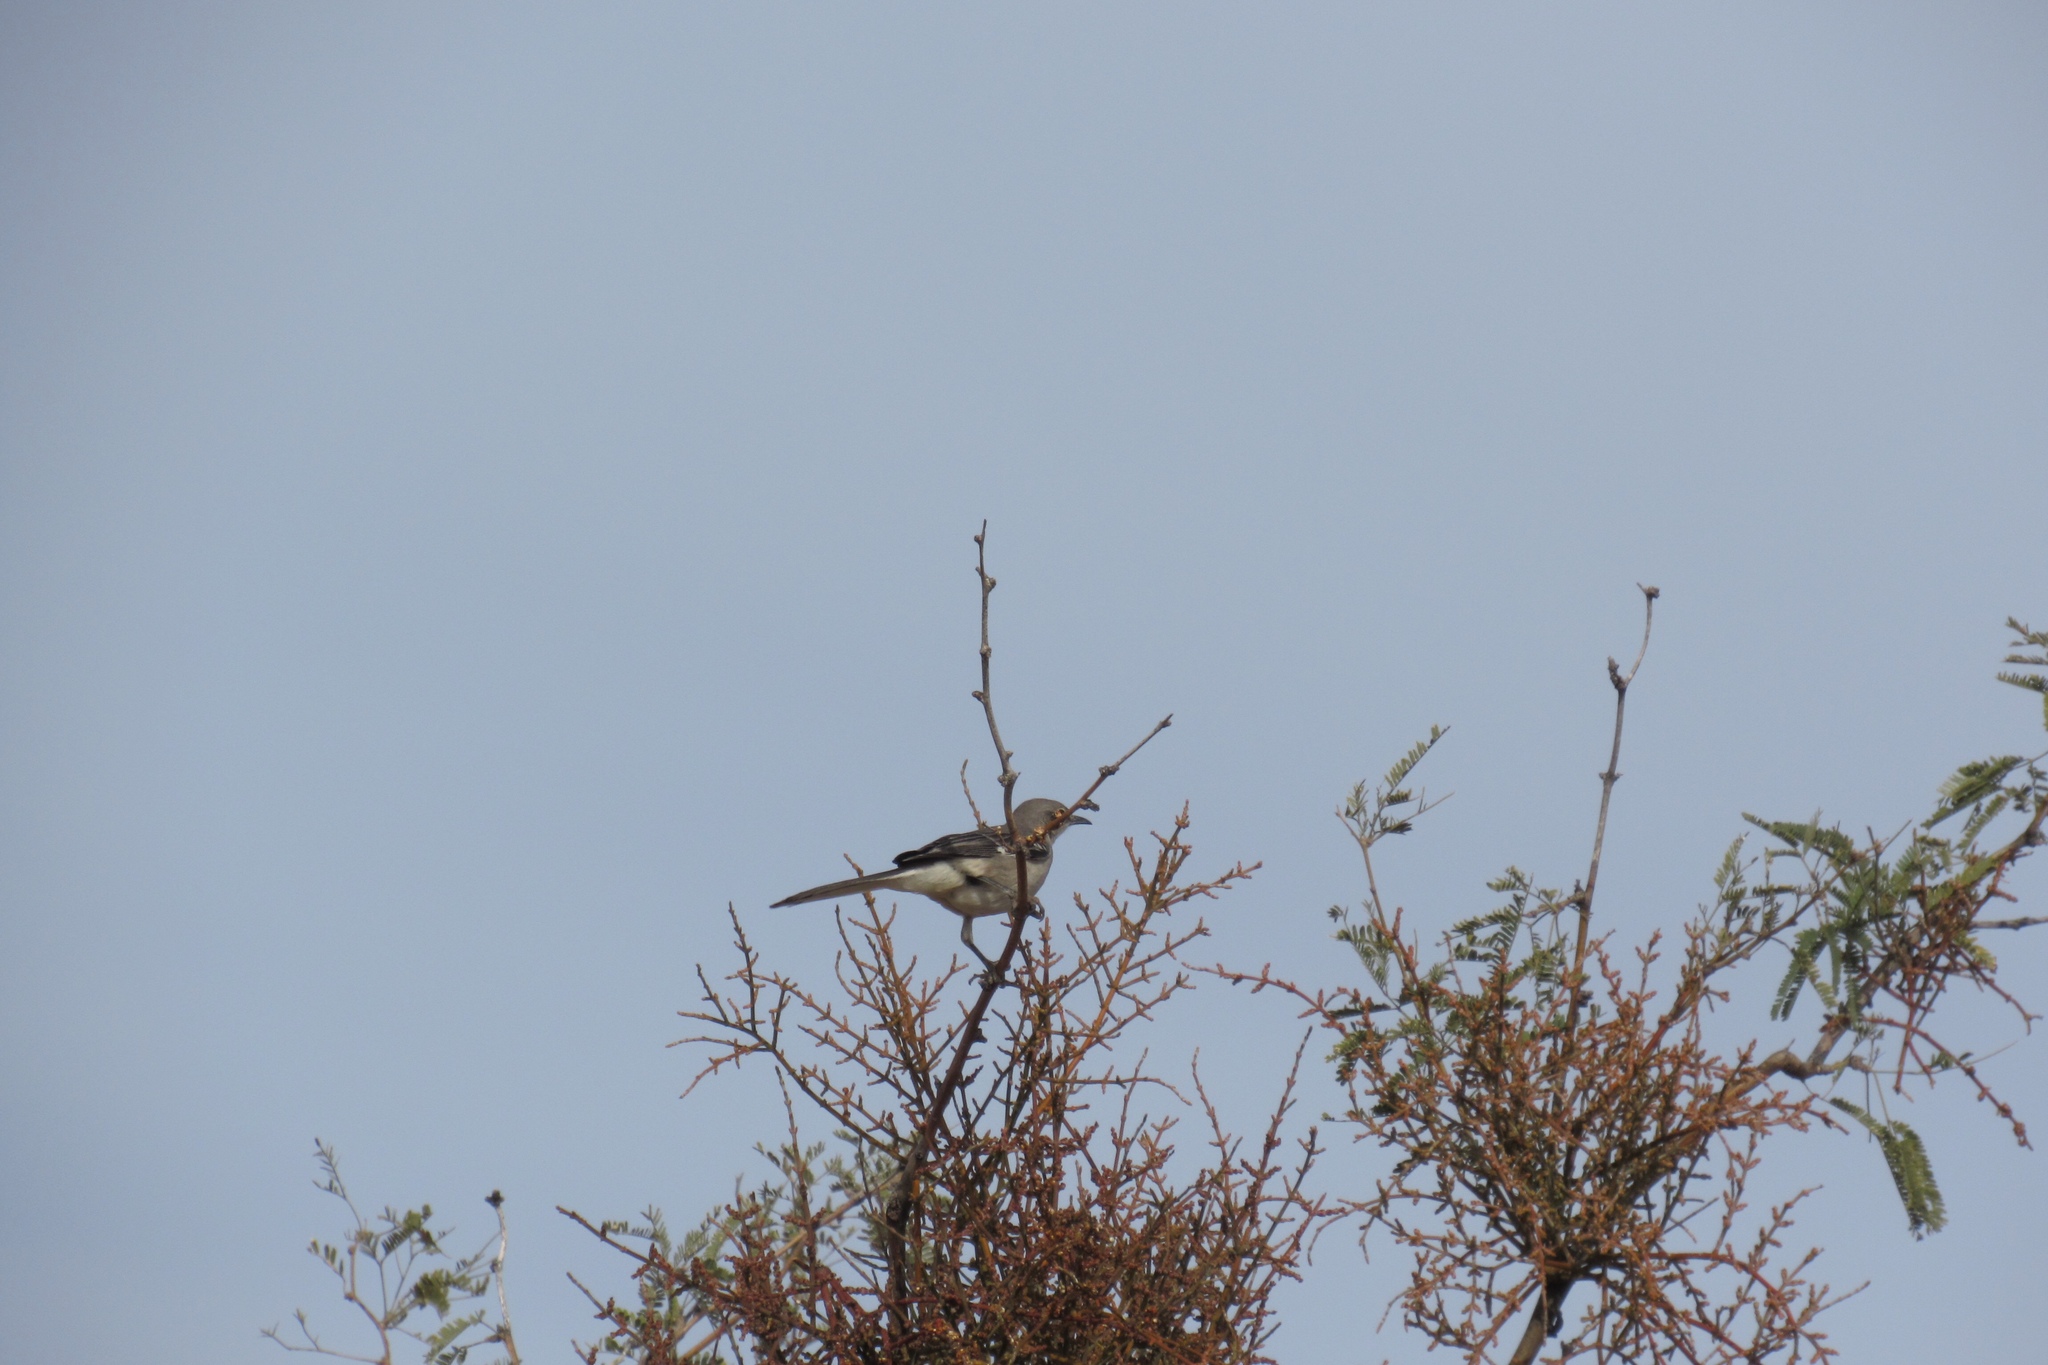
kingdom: Animalia
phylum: Chordata
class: Aves
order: Passeriformes
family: Mimidae
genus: Mimus
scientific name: Mimus polyglottos
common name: Northern mockingbird
